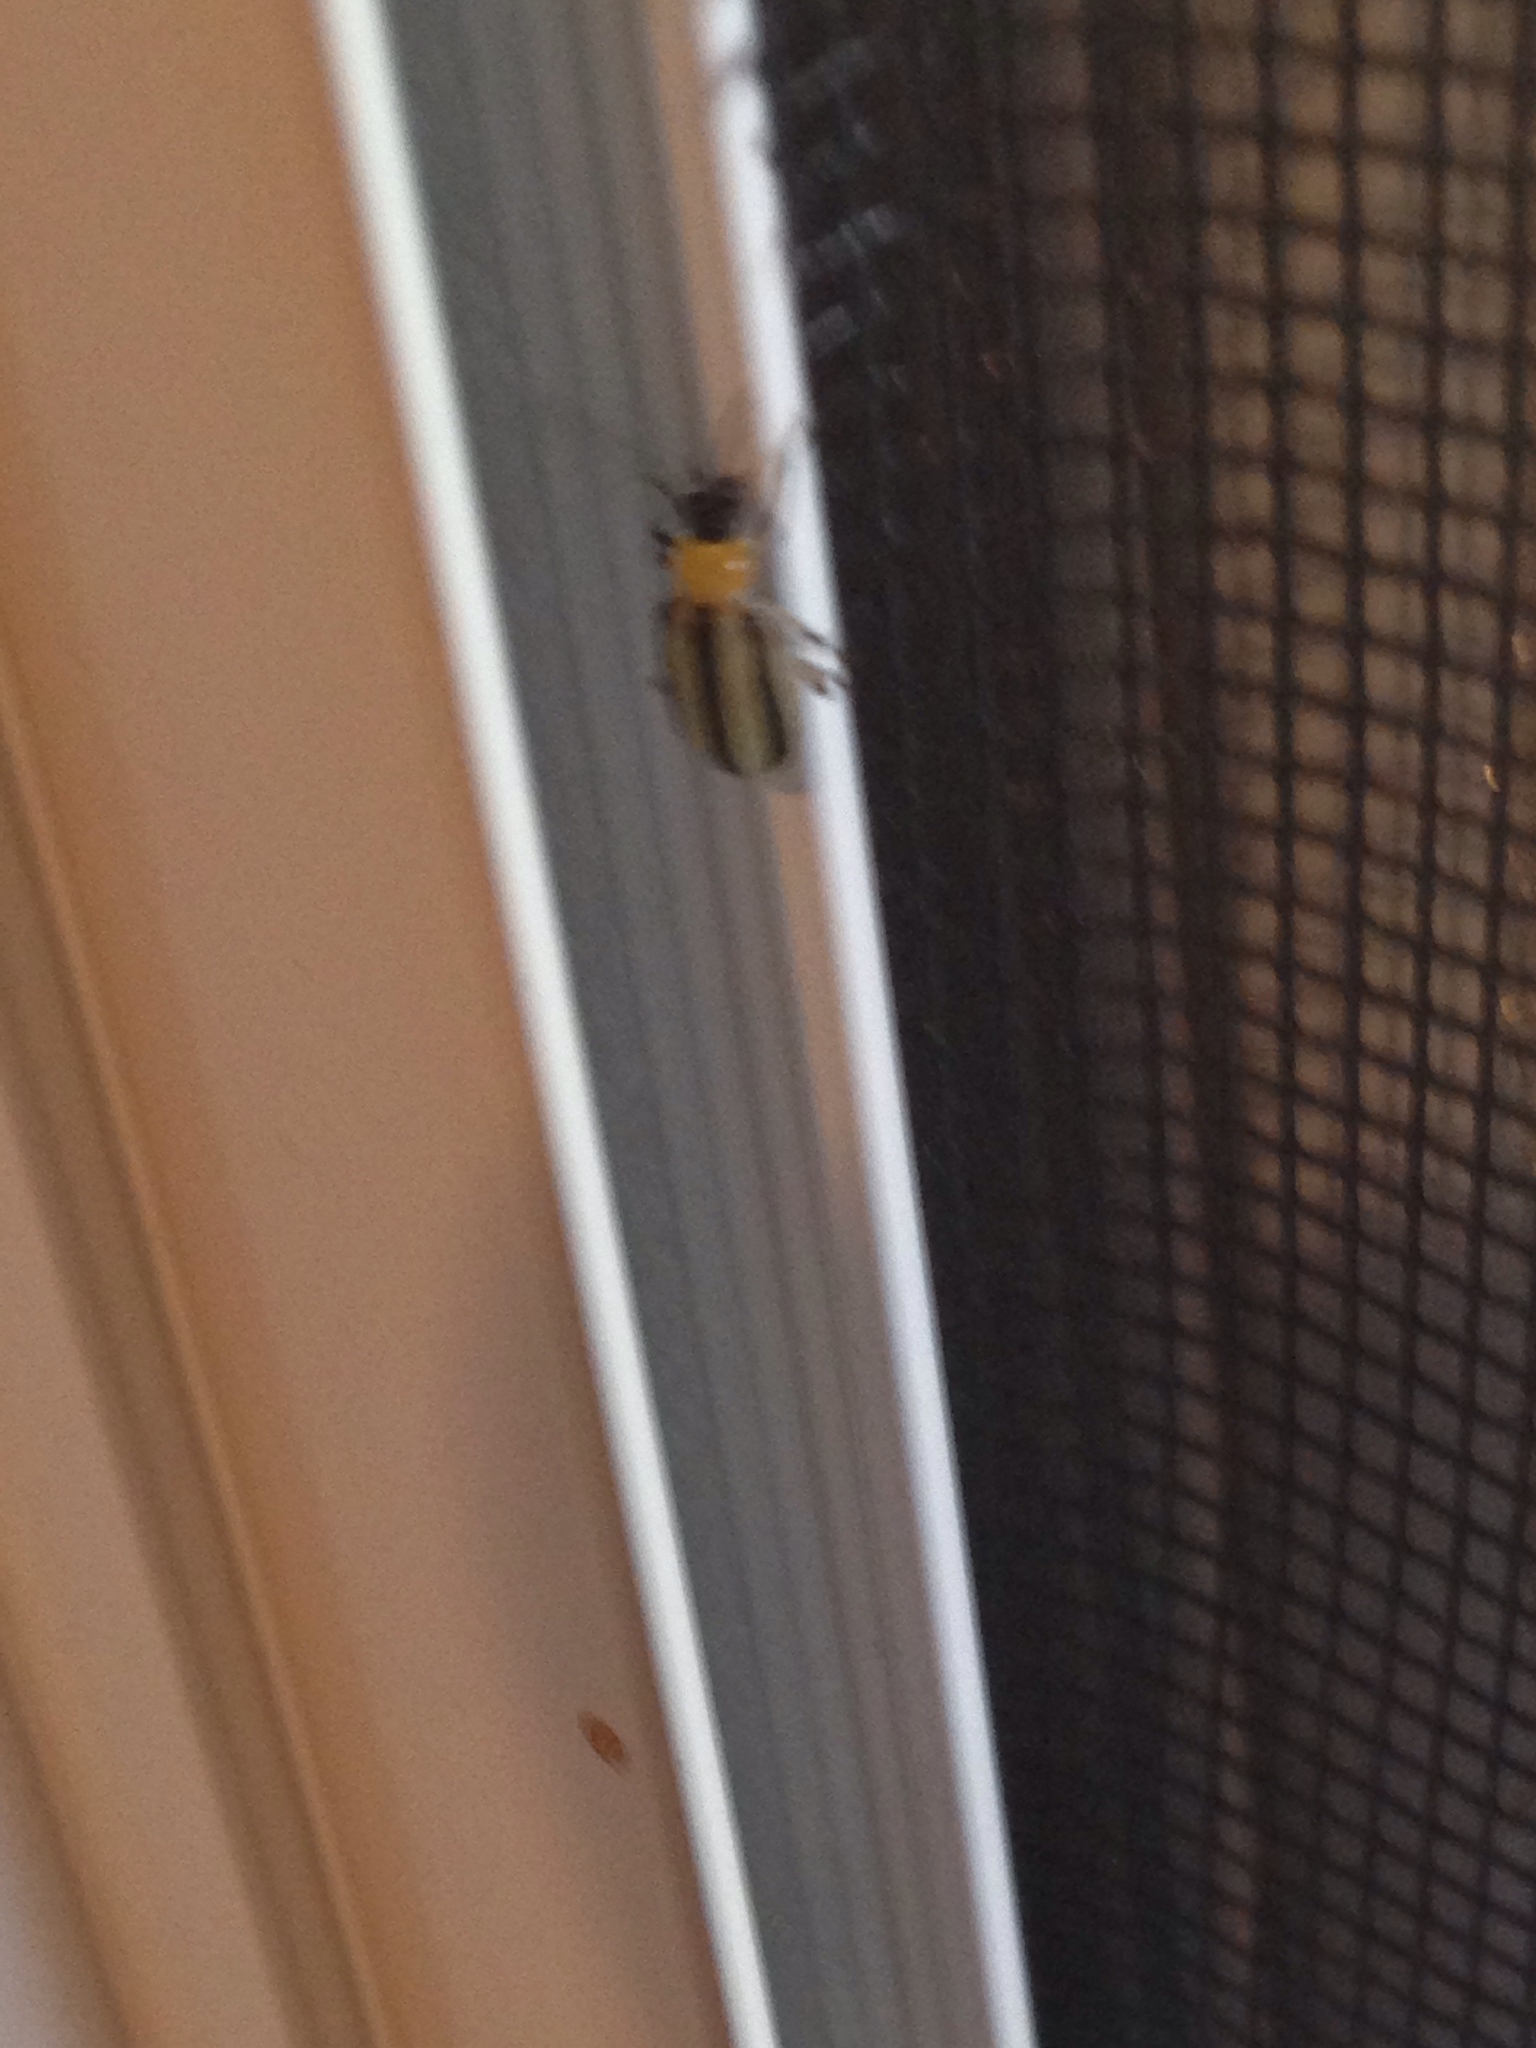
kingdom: Animalia
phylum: Arthropoda
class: Insecta
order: Coleoptera
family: Chrysomelidae
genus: Acalymma
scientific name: Acalymma vittatum
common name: Striped cucumber beetle
